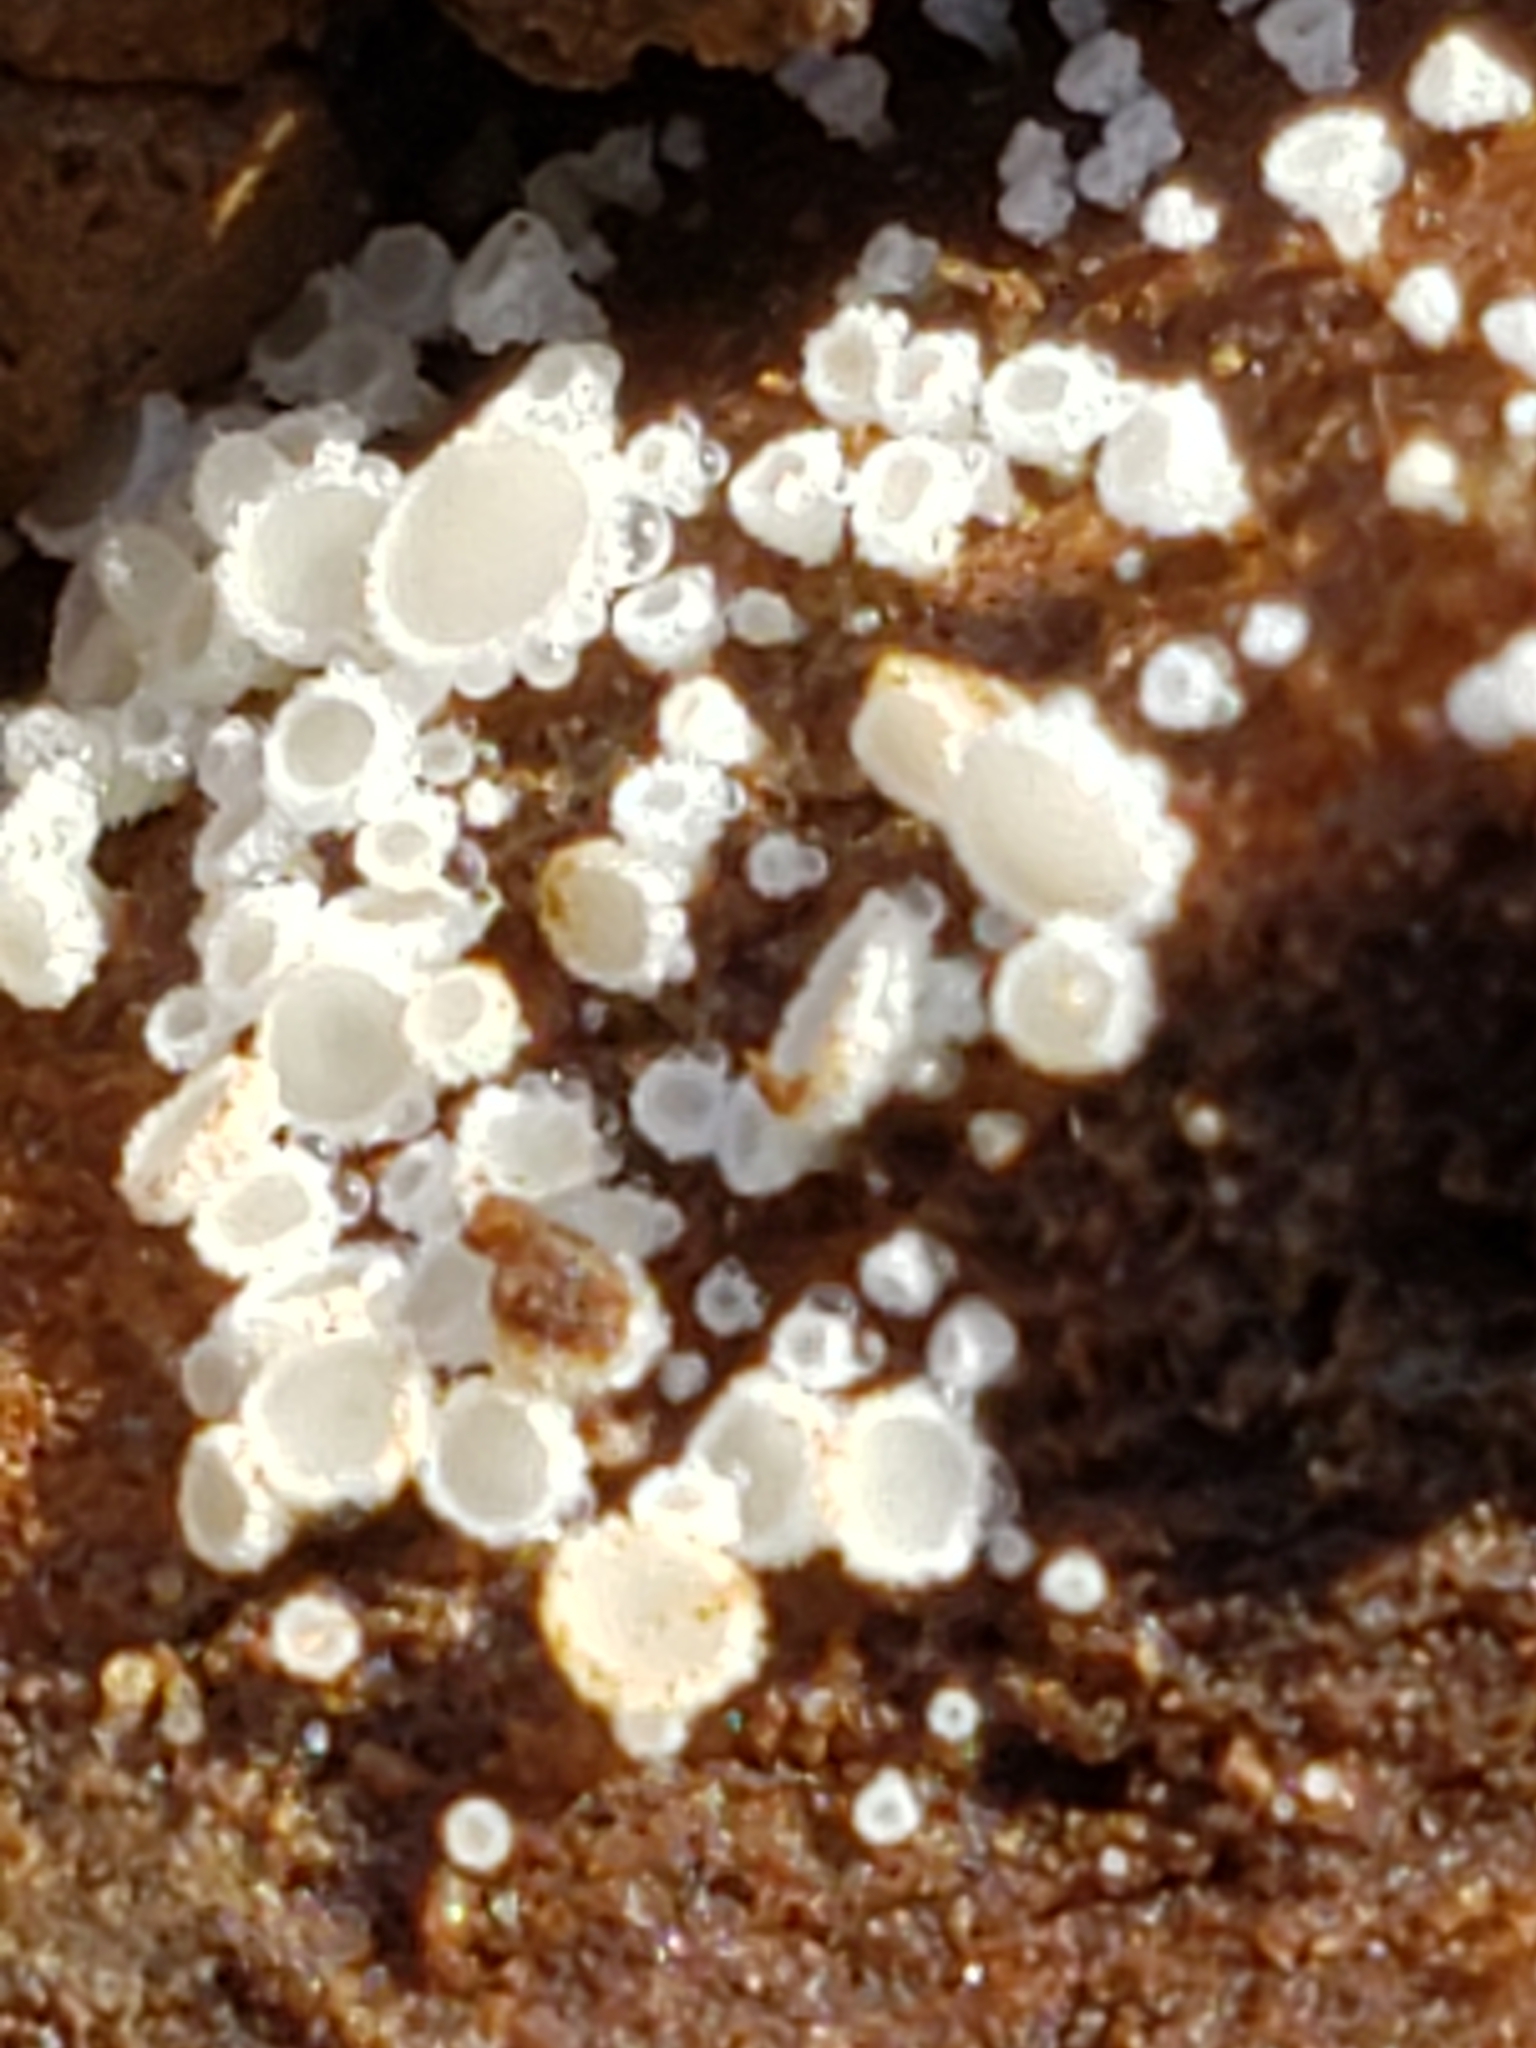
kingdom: Fungi
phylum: Ascomycota
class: Leotiomycetes
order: Helotiales
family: Lachnaceae
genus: Lachnum
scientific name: Lachnum virgineum
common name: Snowy disco
